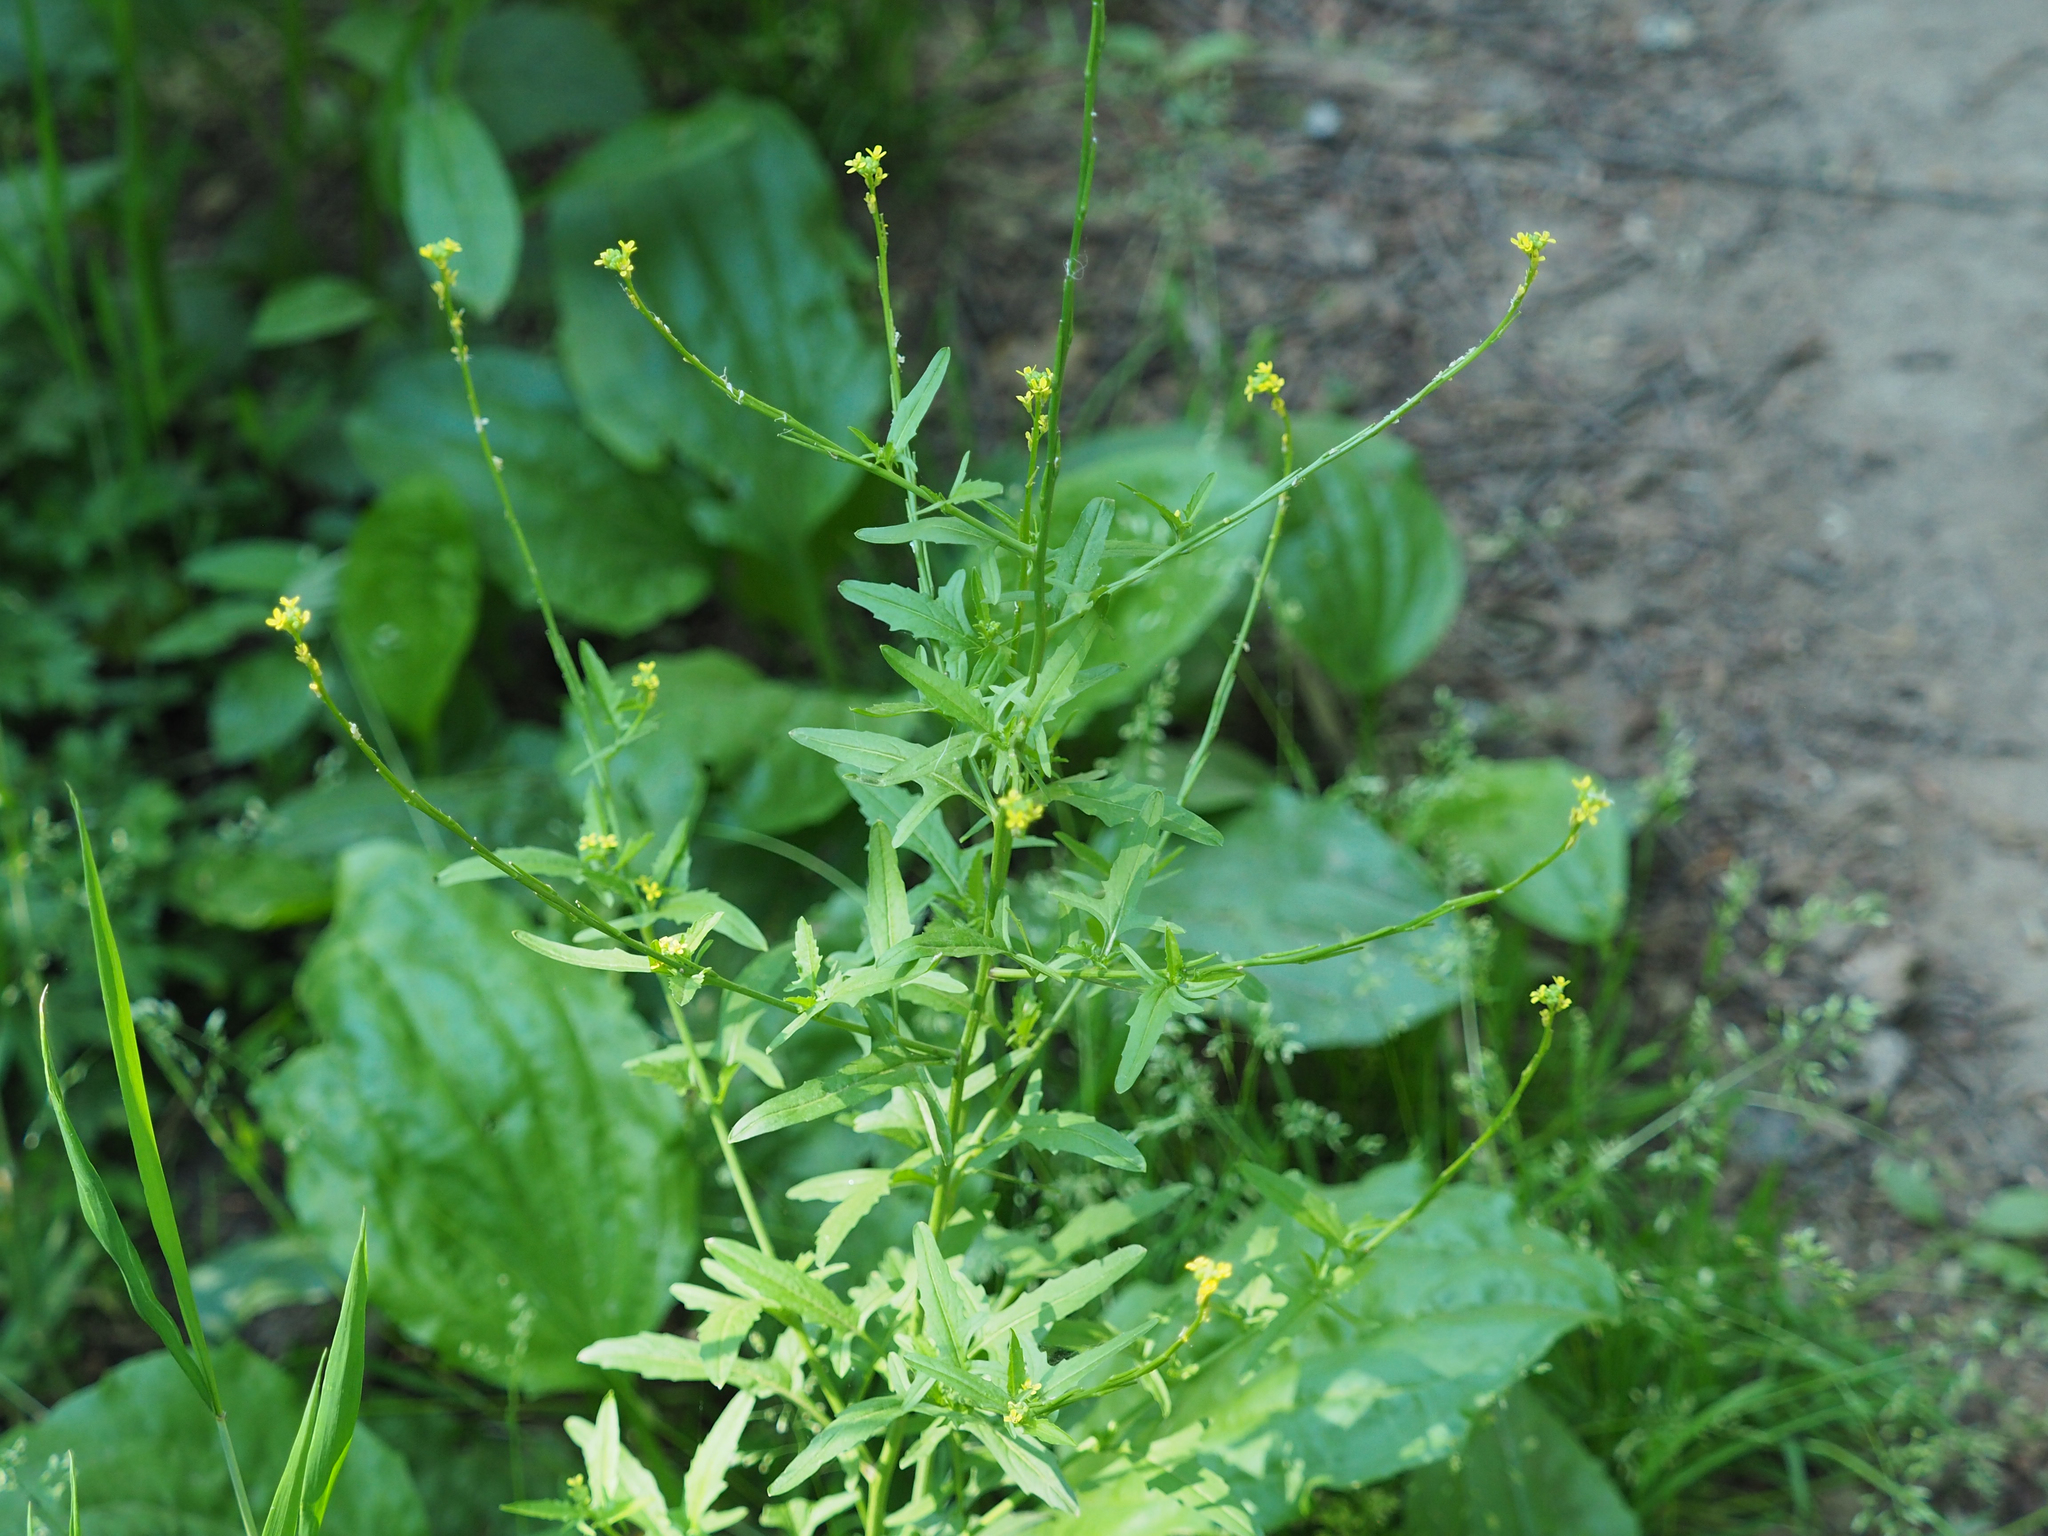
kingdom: Plantae
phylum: Tracheophyta
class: Magnoliopsida
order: Brassicales
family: Brassicaceae
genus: Sisymbrium
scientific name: Sisymbrium officinale
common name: Hedge mustard
